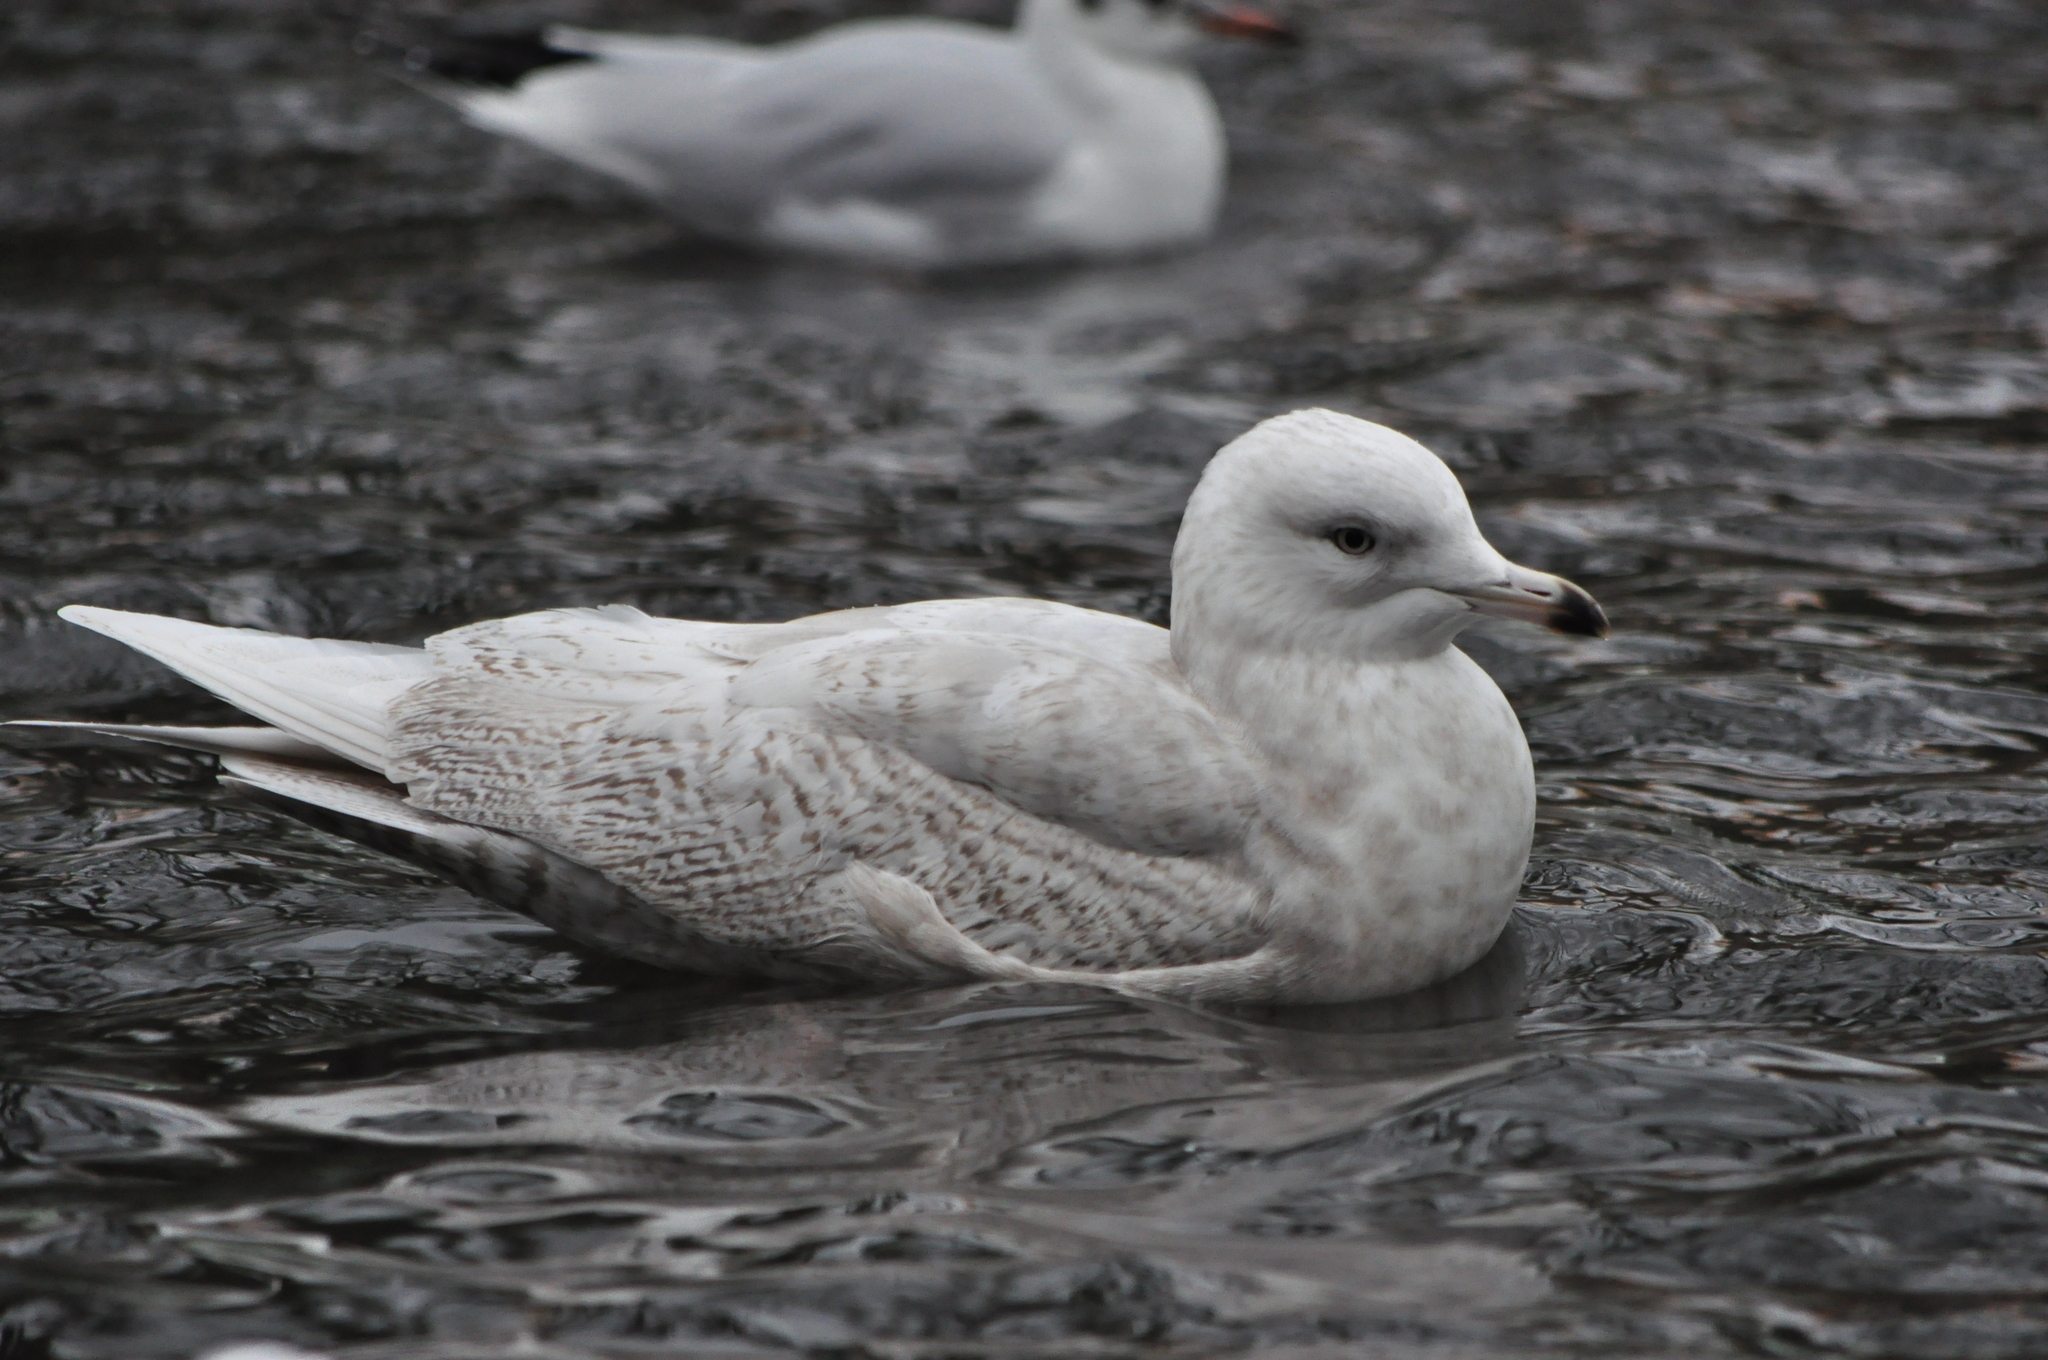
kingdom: Animalia
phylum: Chordata
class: Aves
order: Charadriiformes
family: Laridae
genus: Larus
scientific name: Larus glaucoides
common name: Iceland gull
